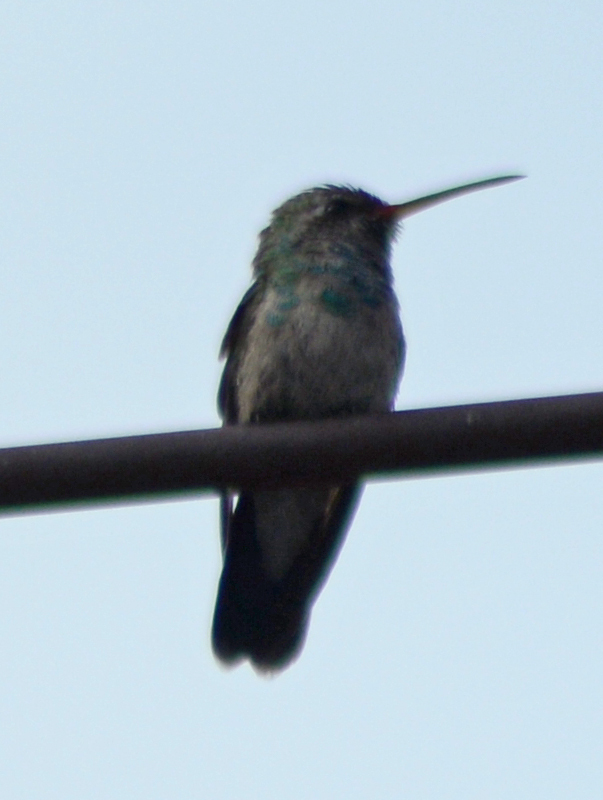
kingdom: Animalia
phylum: Chordata
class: Aves
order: Apodiformes
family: Trochilidae
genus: Cynanthus
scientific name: Cynanthus latirostris
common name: Broad-billed hummingbird
